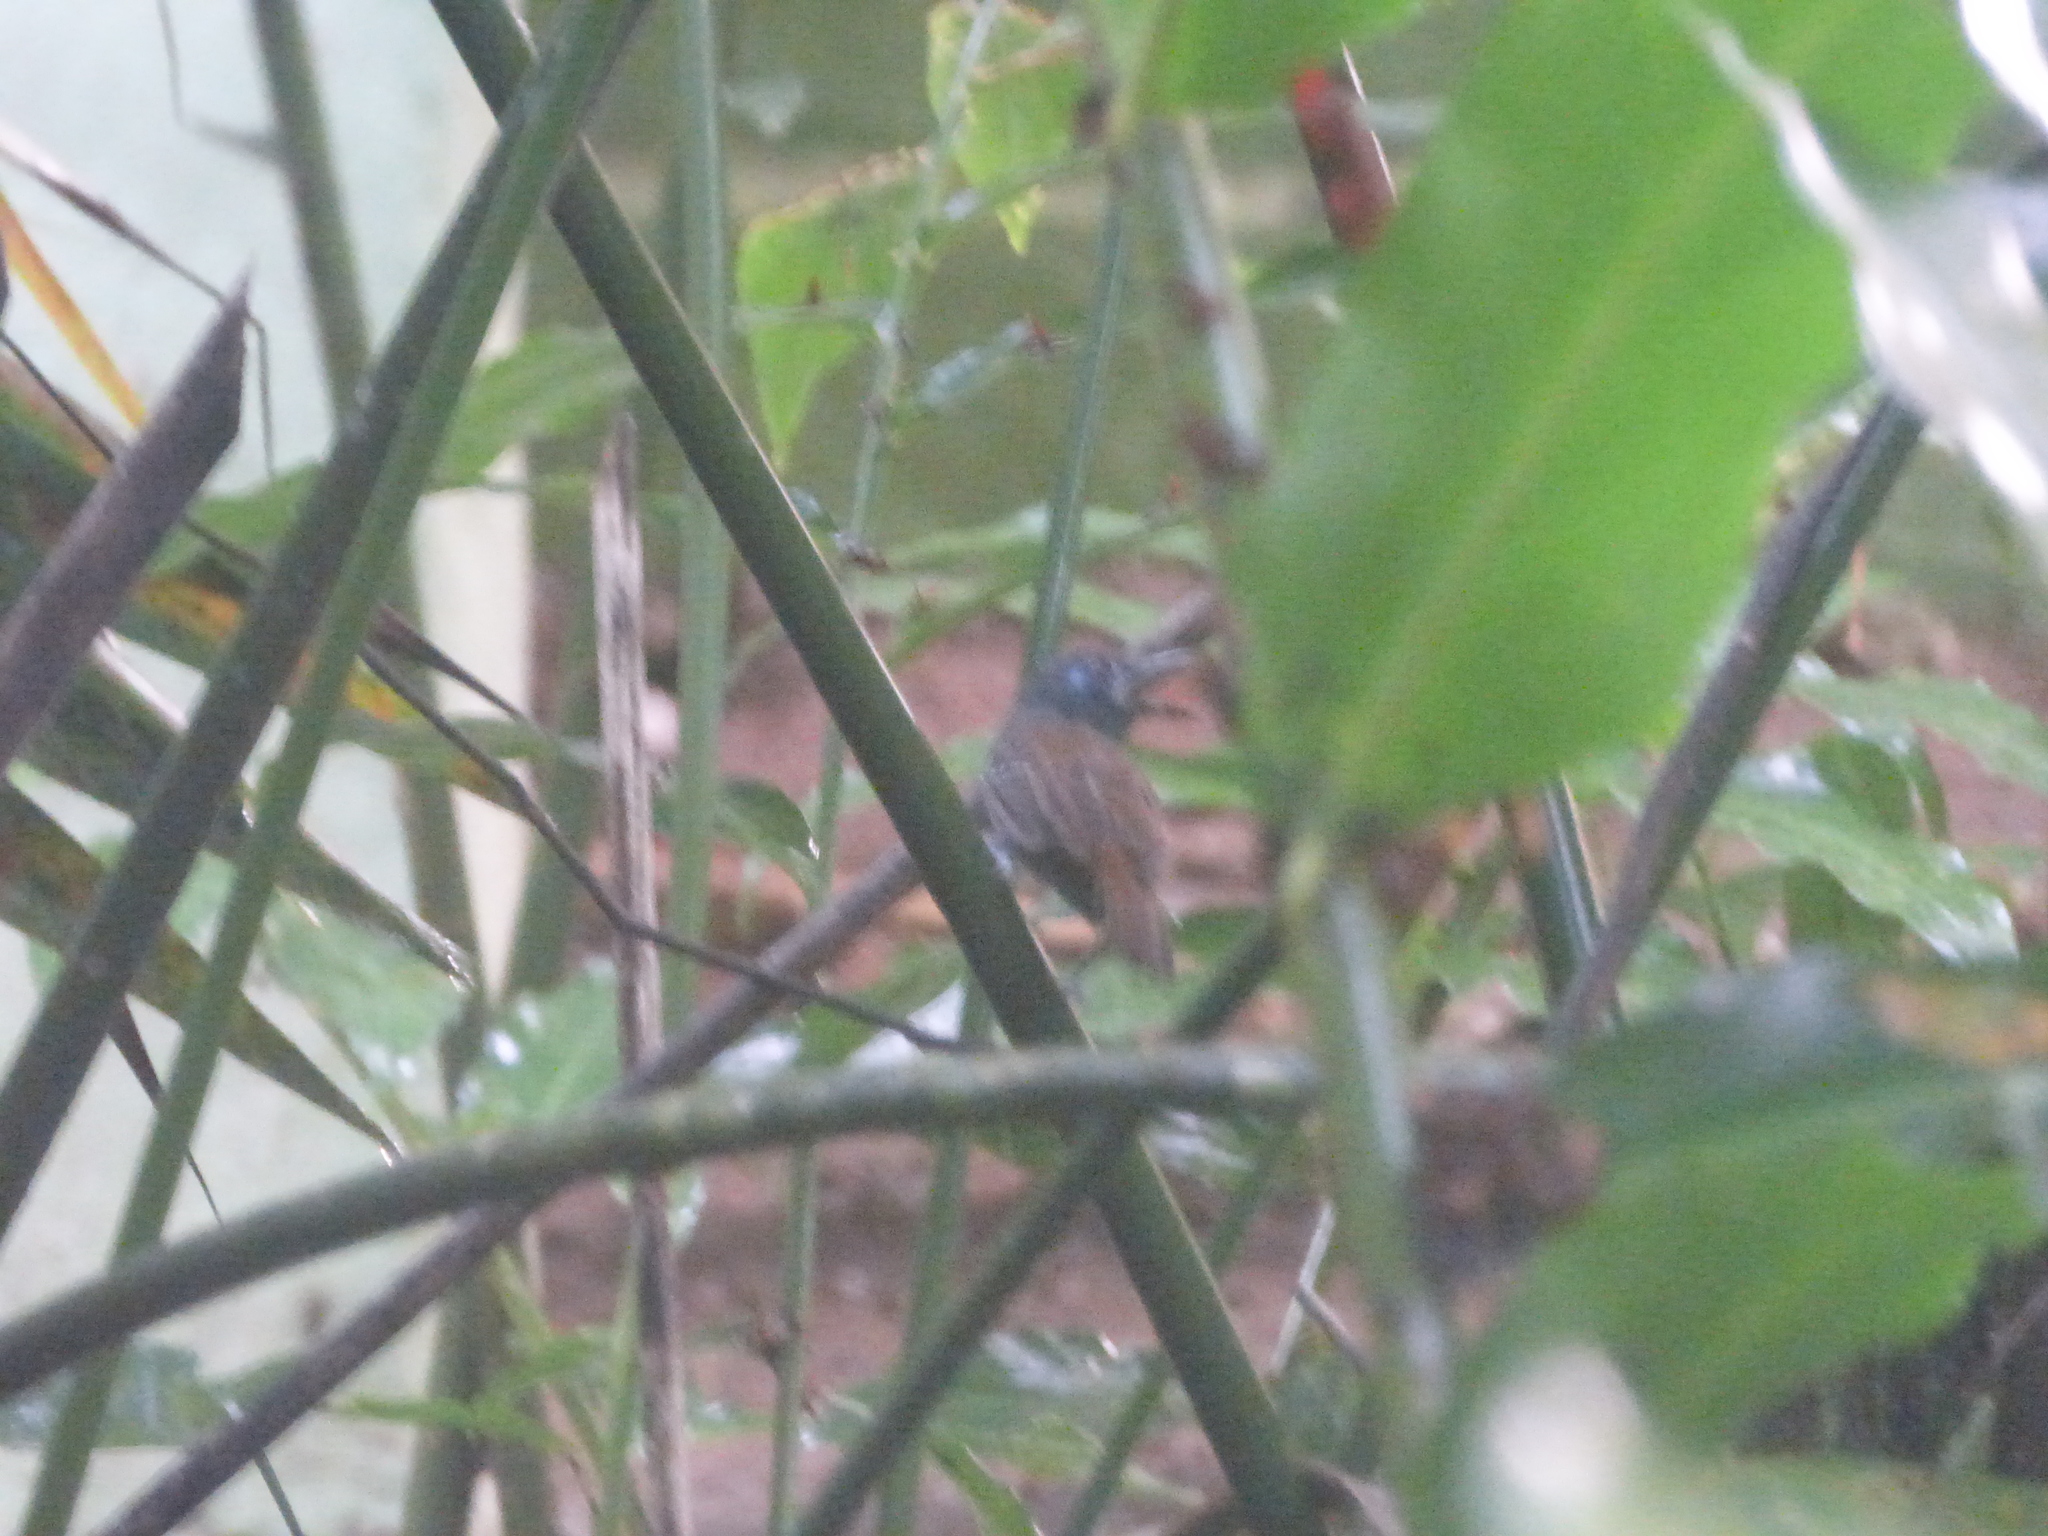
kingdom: Animalia
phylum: Chordata
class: Aves
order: Passeriformes
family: Thamnophilidae
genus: Myrmeciza
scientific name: Myrmeciza exsul
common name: Chestnut-backed antbird
